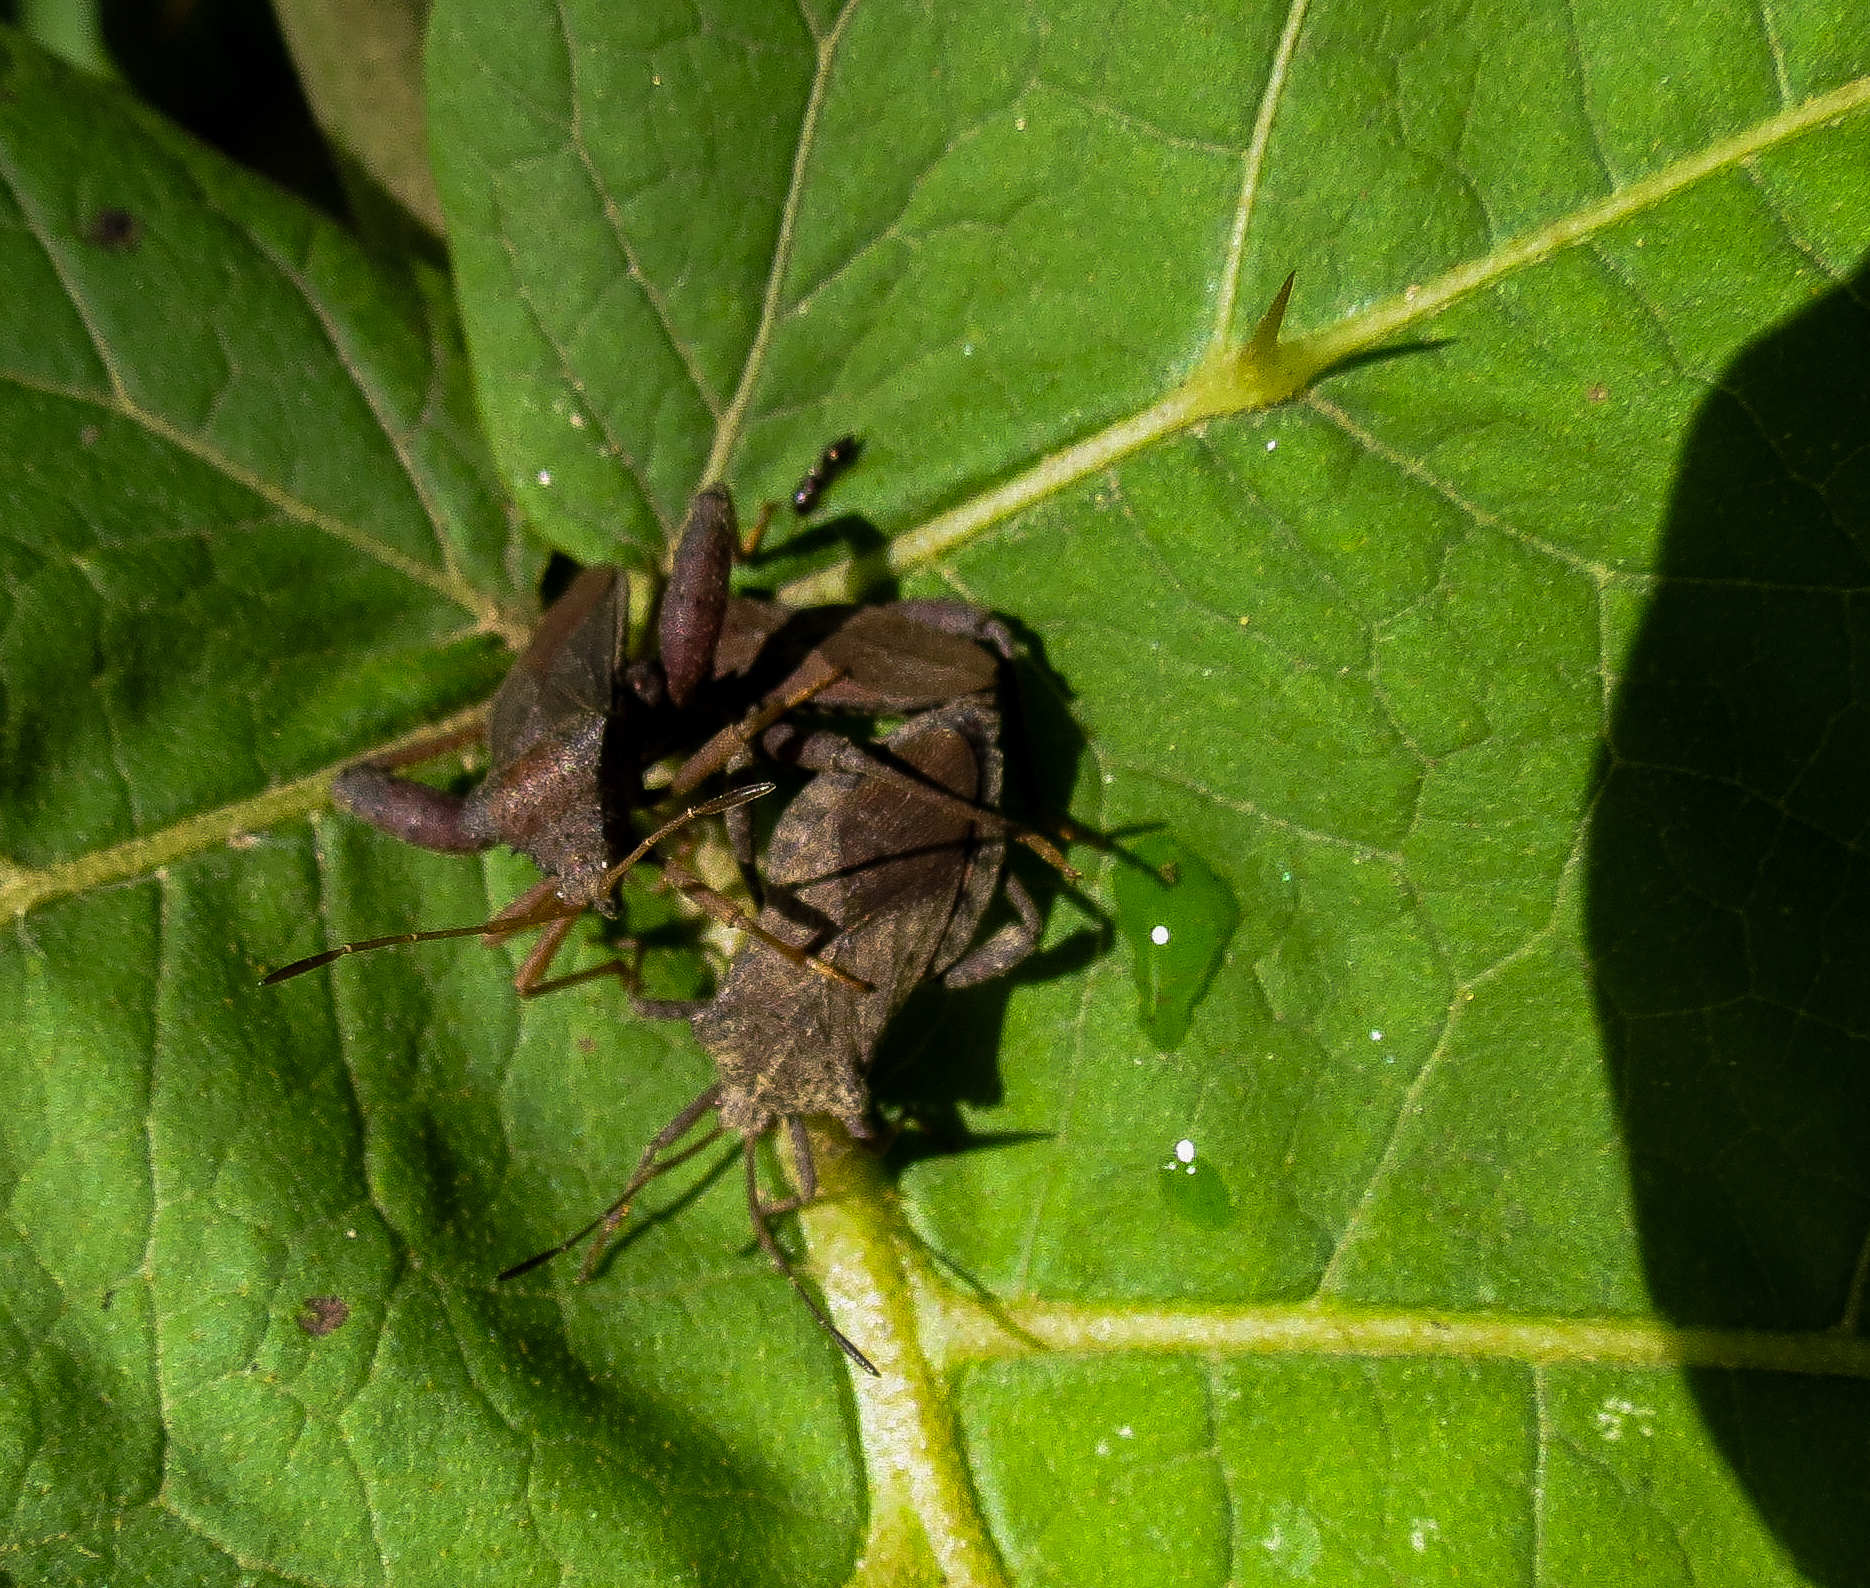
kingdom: Animalia
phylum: Arthropoda
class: Insecta
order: Hemiptera
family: Coreidae
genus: Camptischium
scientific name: Camptischium clavipes
